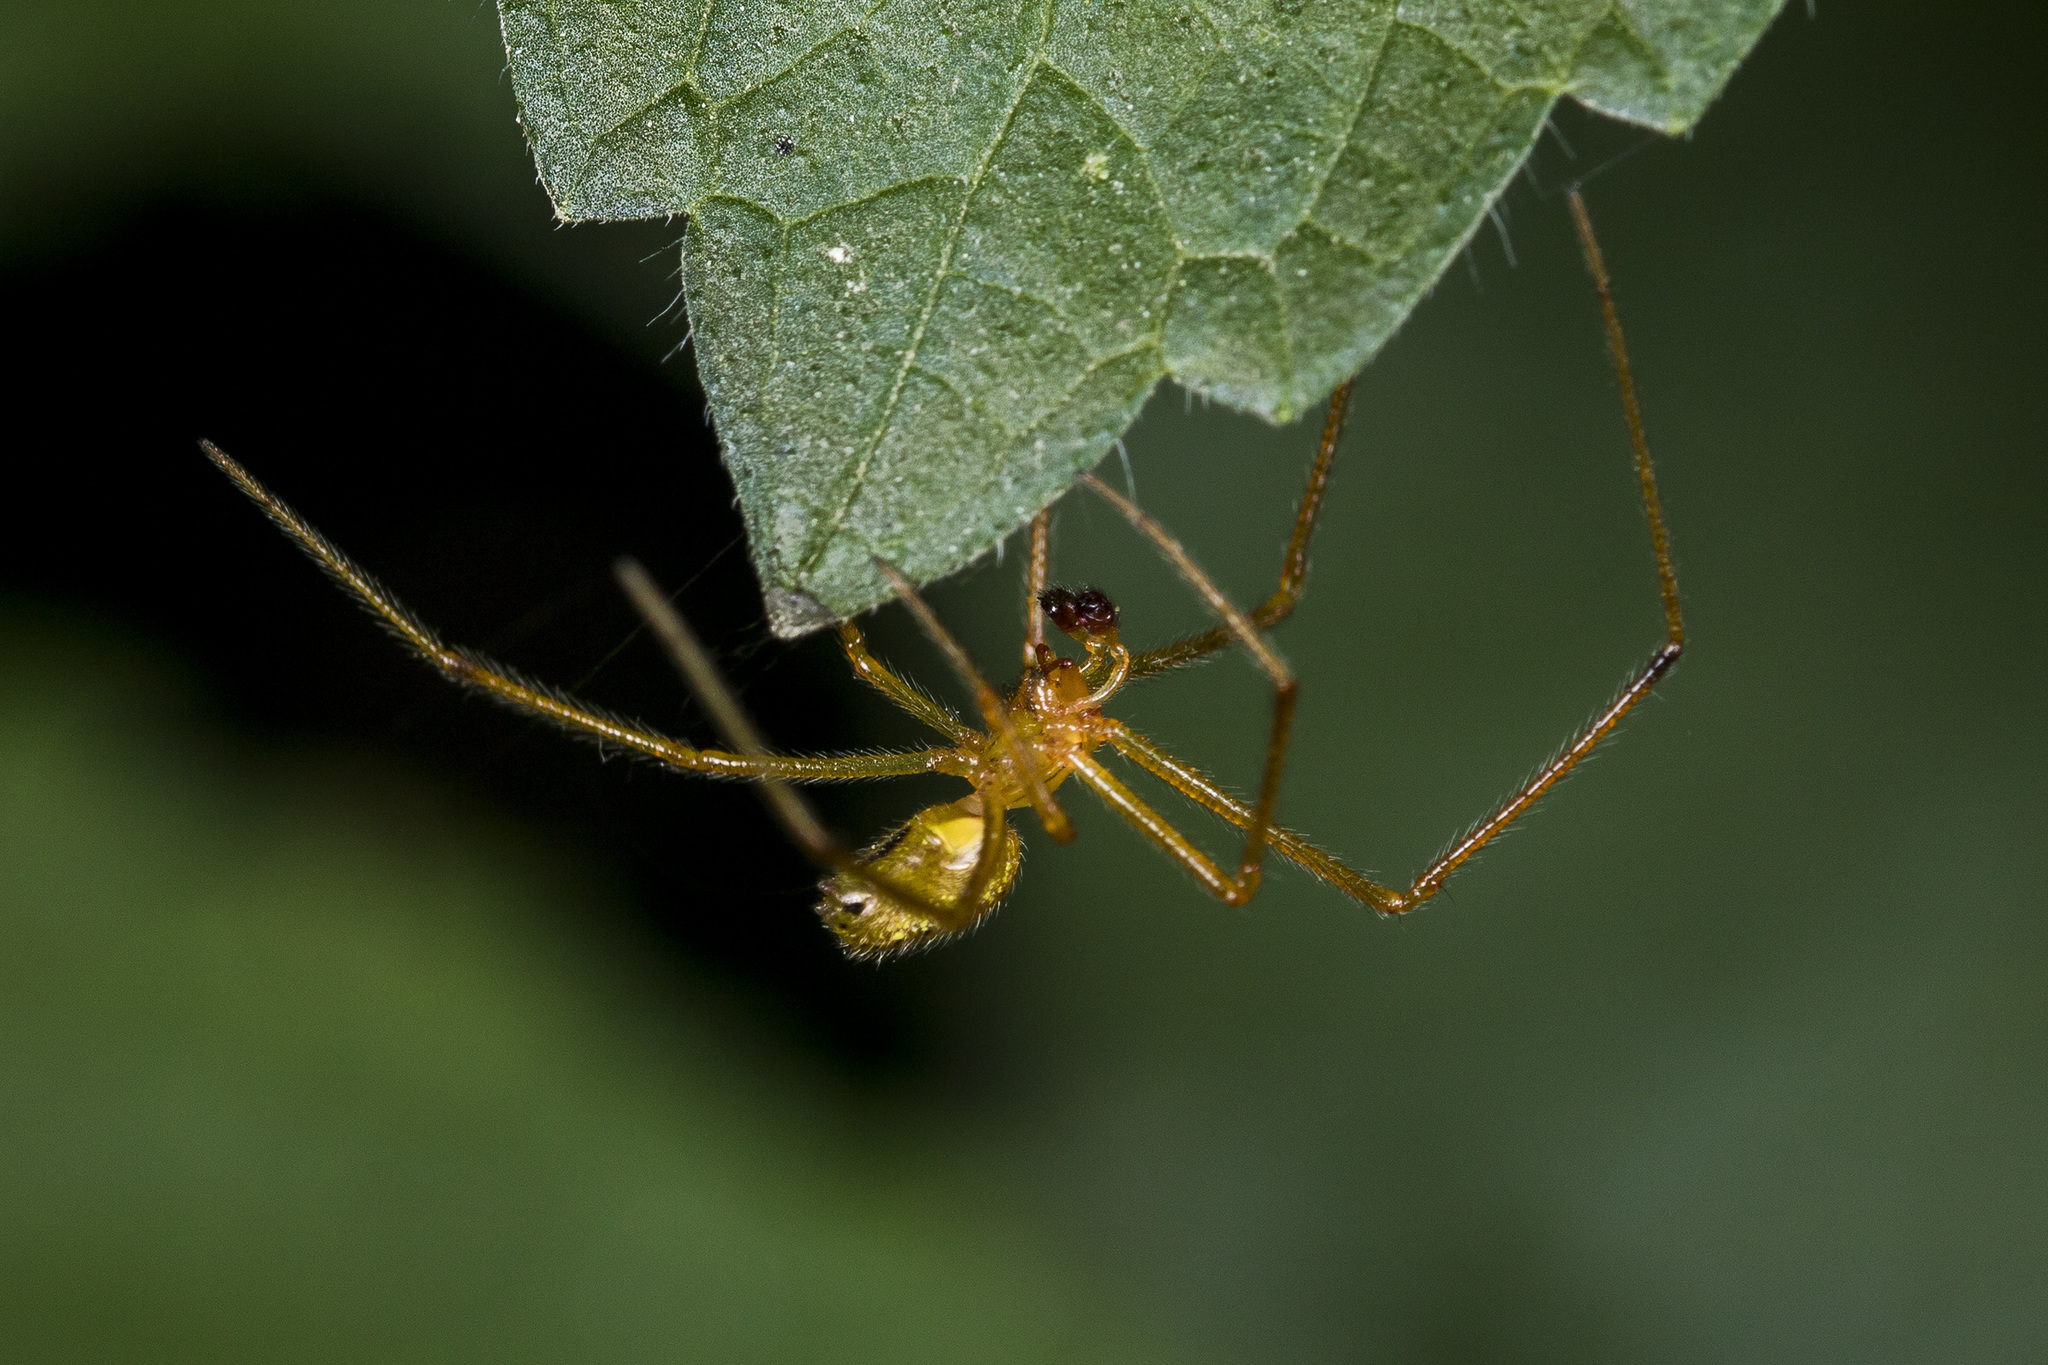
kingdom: Animalia
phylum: Arthropoda
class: Arachnida
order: Araneae
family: Theridiidae
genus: Enoplognatha
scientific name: Enoplognatha latimana
